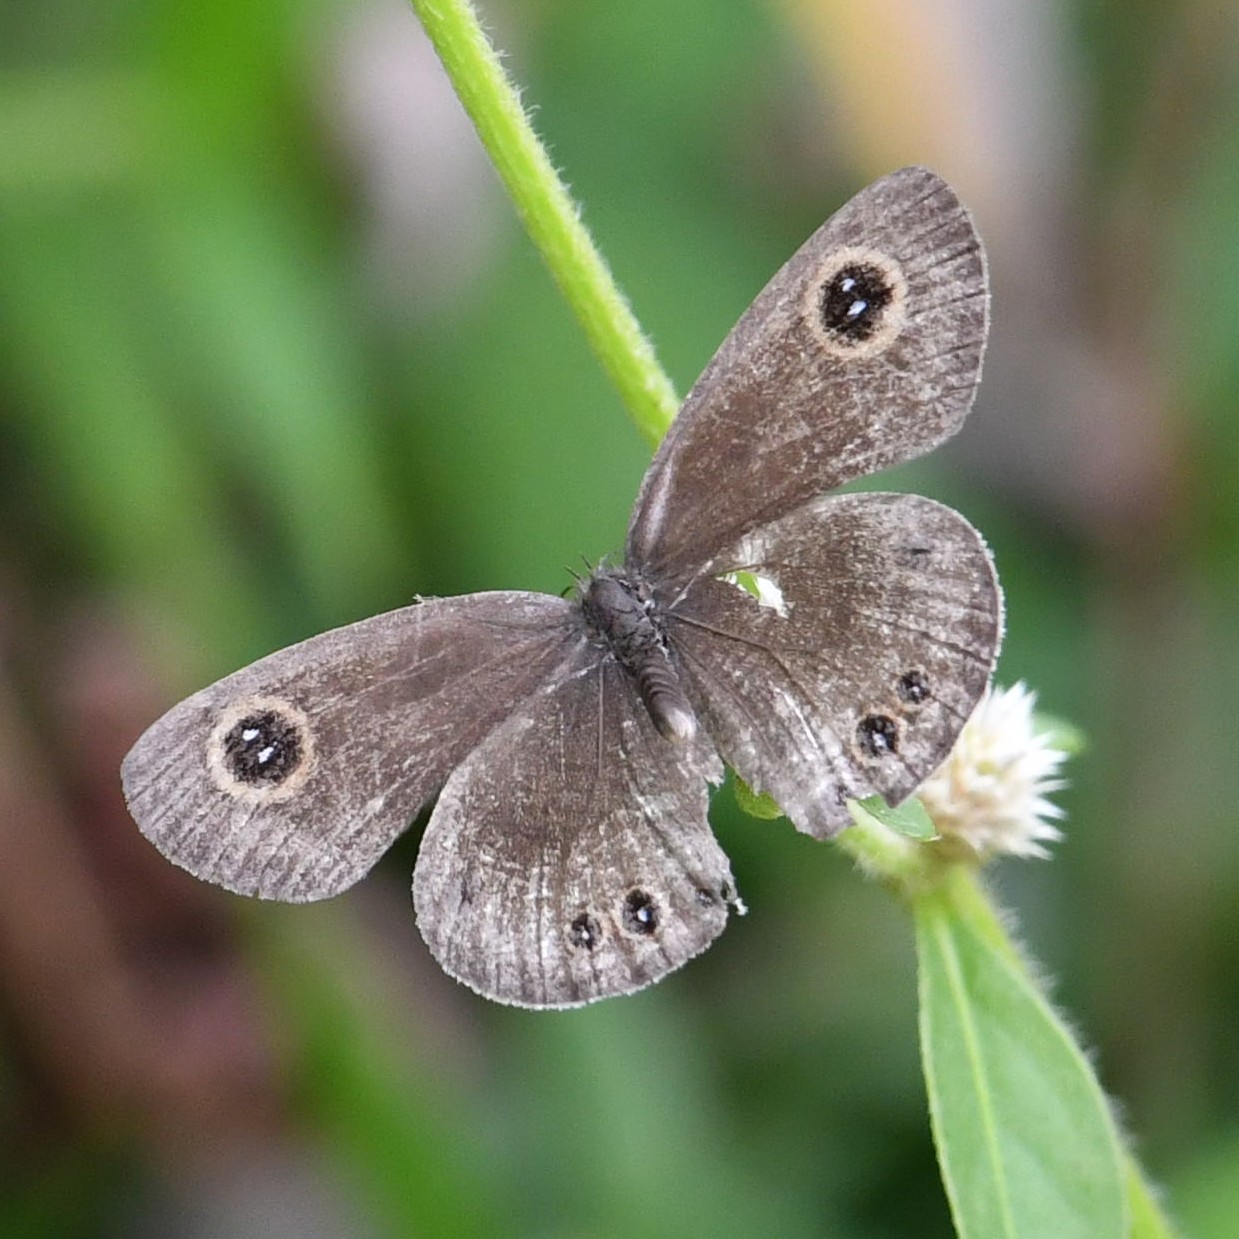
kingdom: Animalia
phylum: Arthropoda
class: Insecta
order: Lepidoptera
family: Nymphalidae
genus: Ypthima
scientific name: Ypthima huebneri
